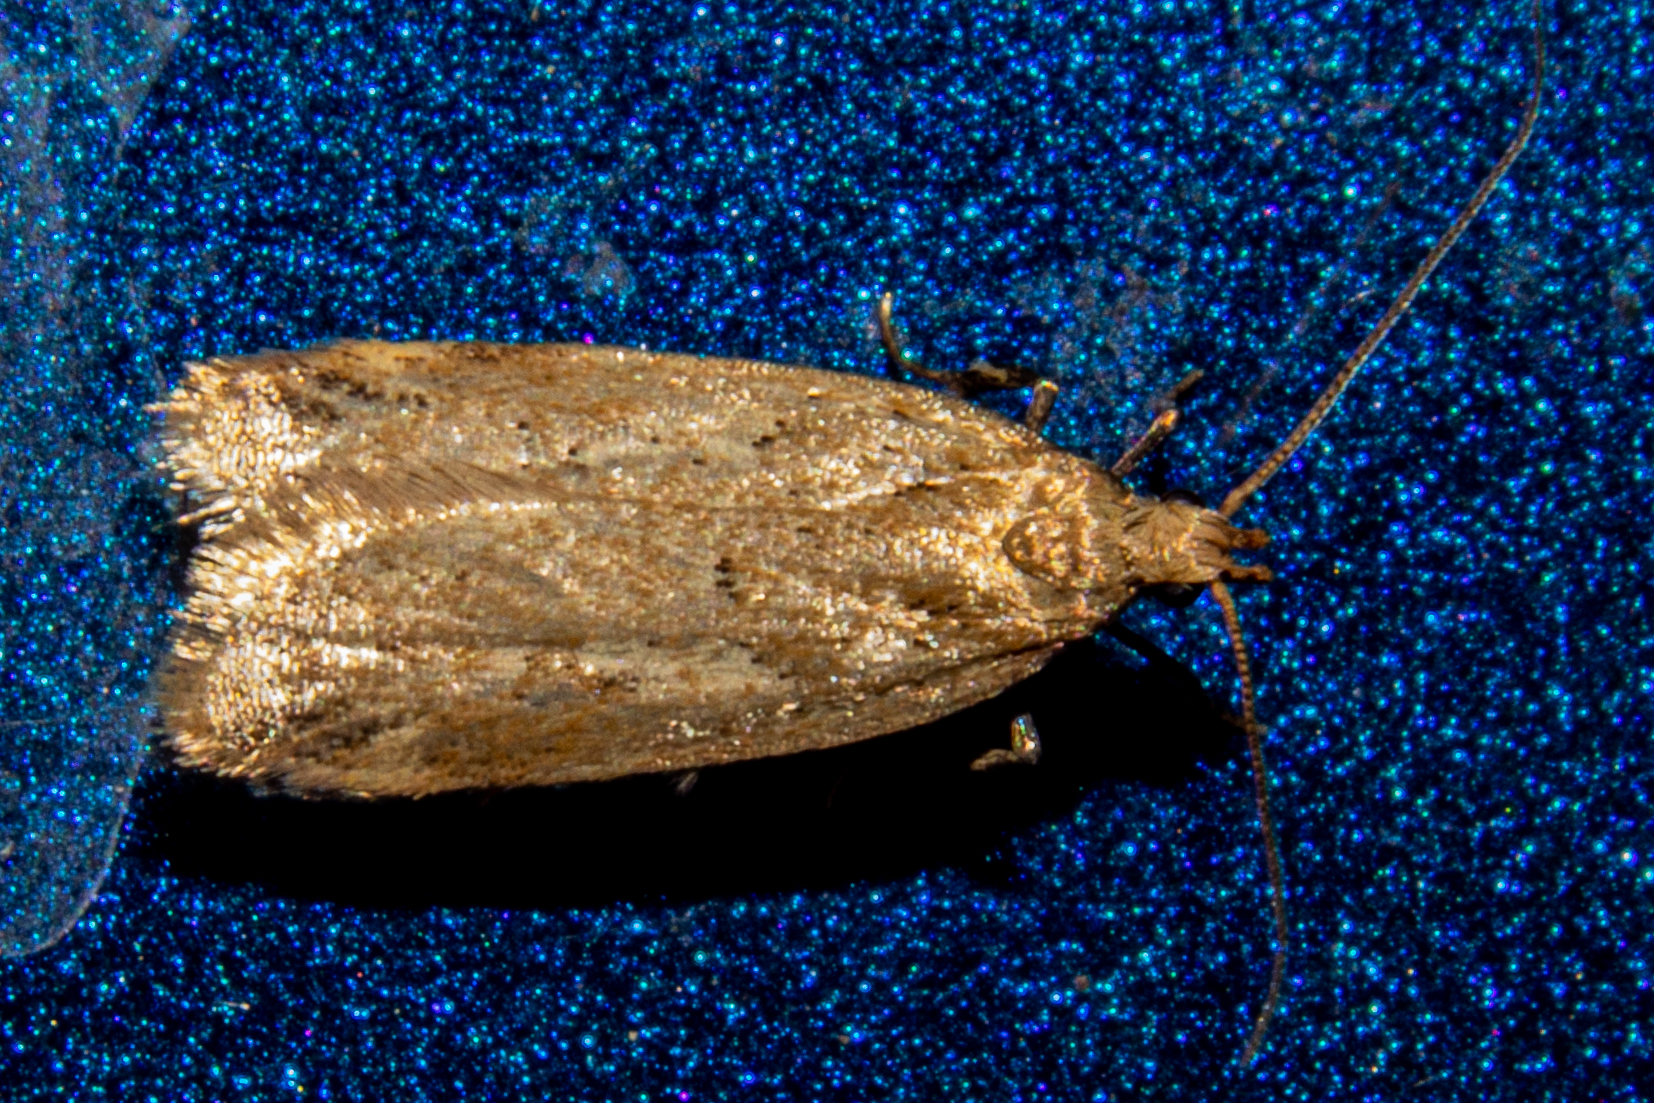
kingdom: Animalia
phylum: Arthropoda
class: Insecta
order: Lepidoptera
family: Oecophoridae
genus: Thamnosara
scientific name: Thamnosara sublitella
